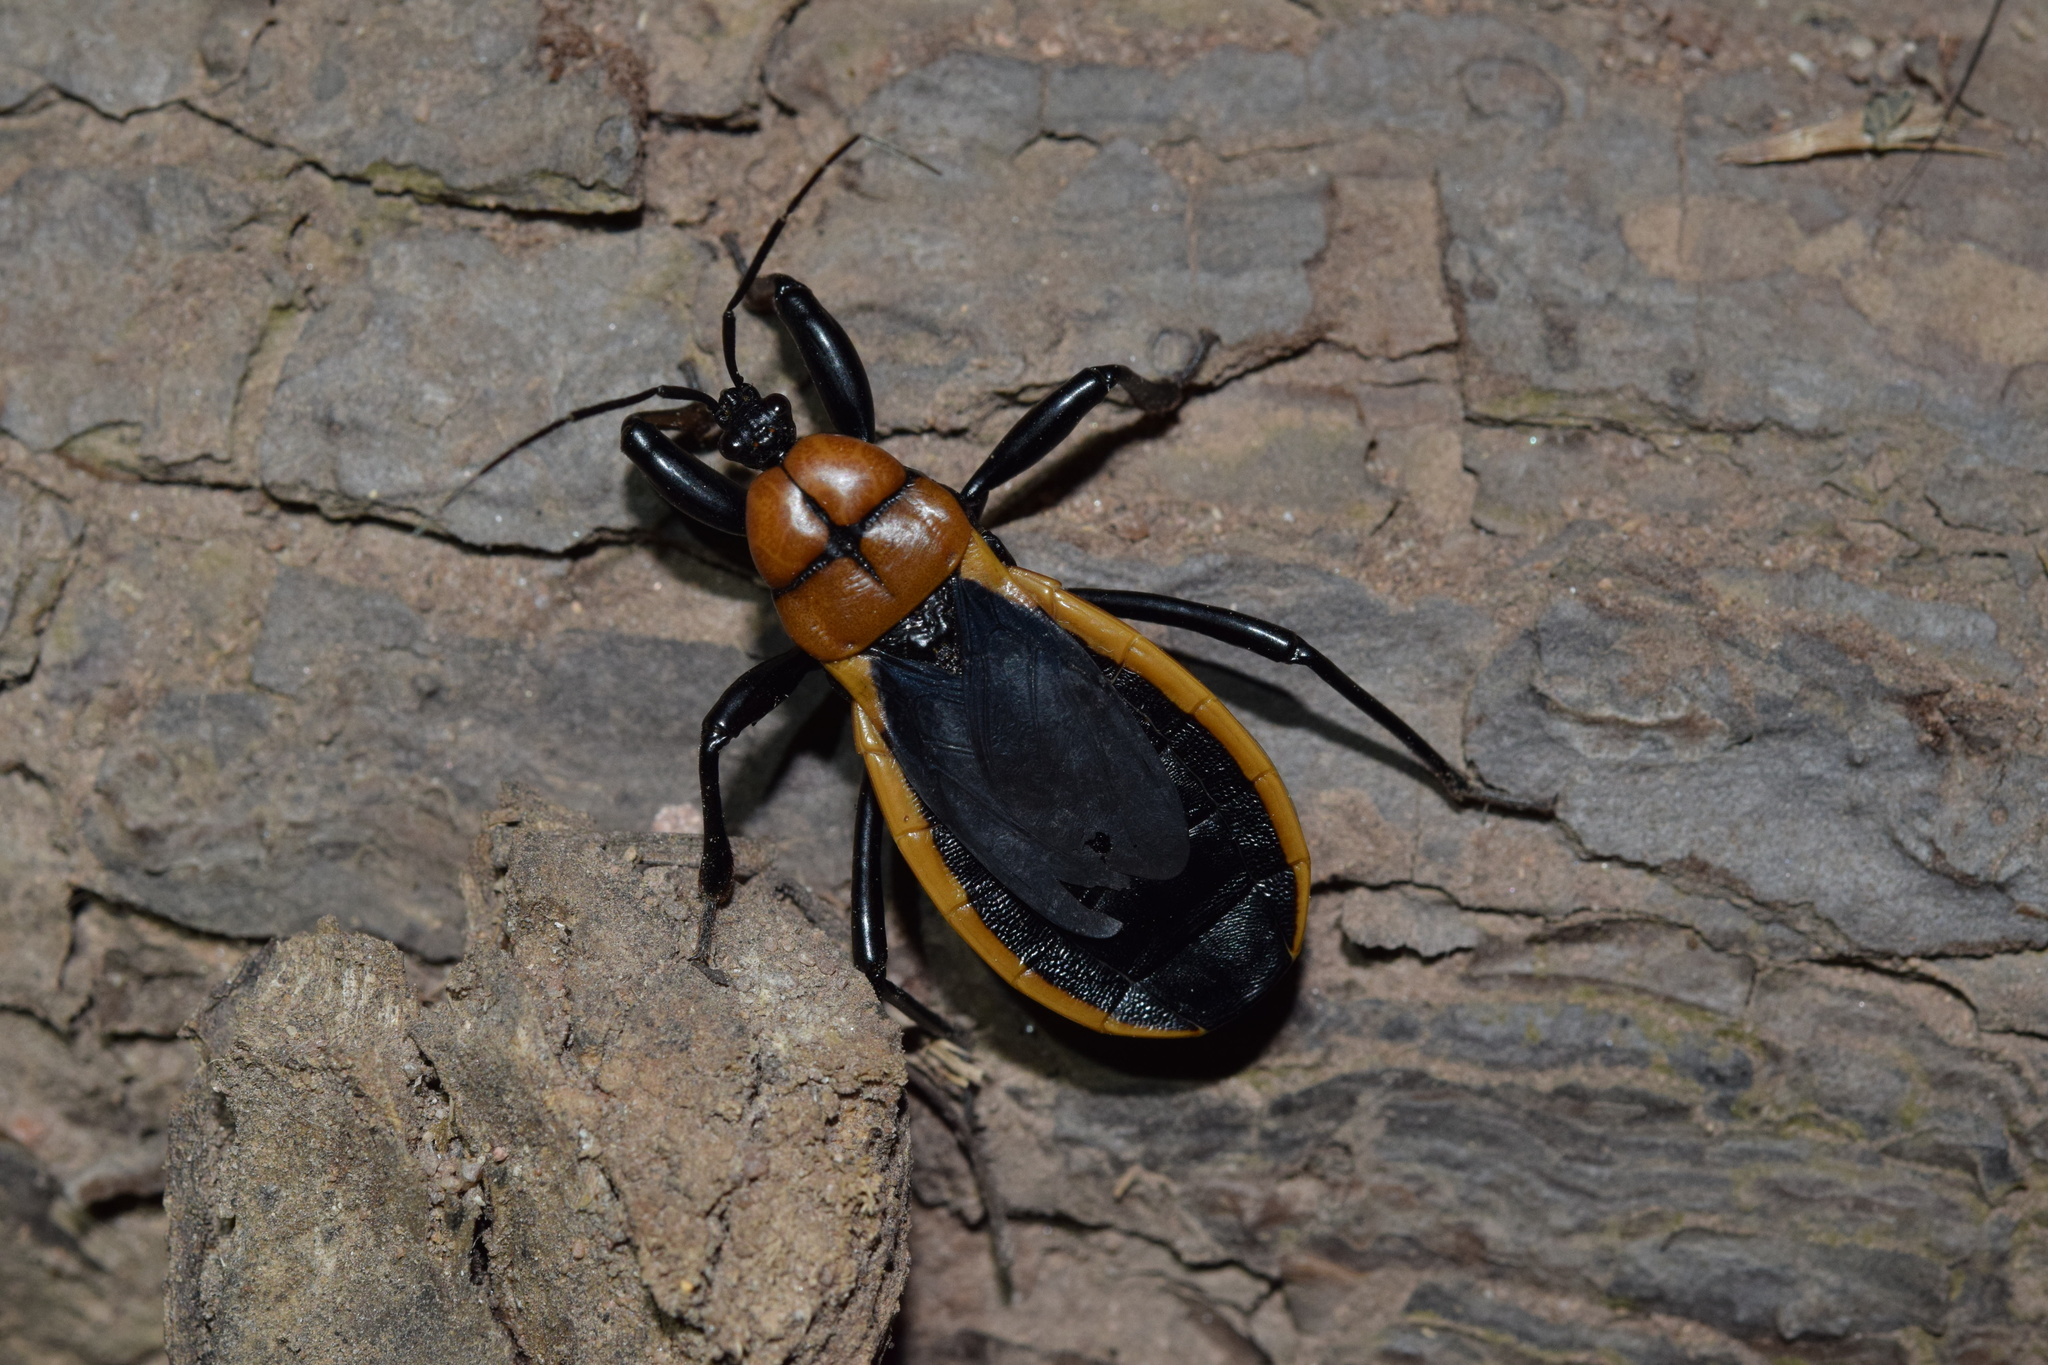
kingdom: Animalia
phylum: Arthropoda
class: Insecta
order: Hemiptera
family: Reduviidae
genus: Ectrichodia
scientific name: Ectrichodia crux
